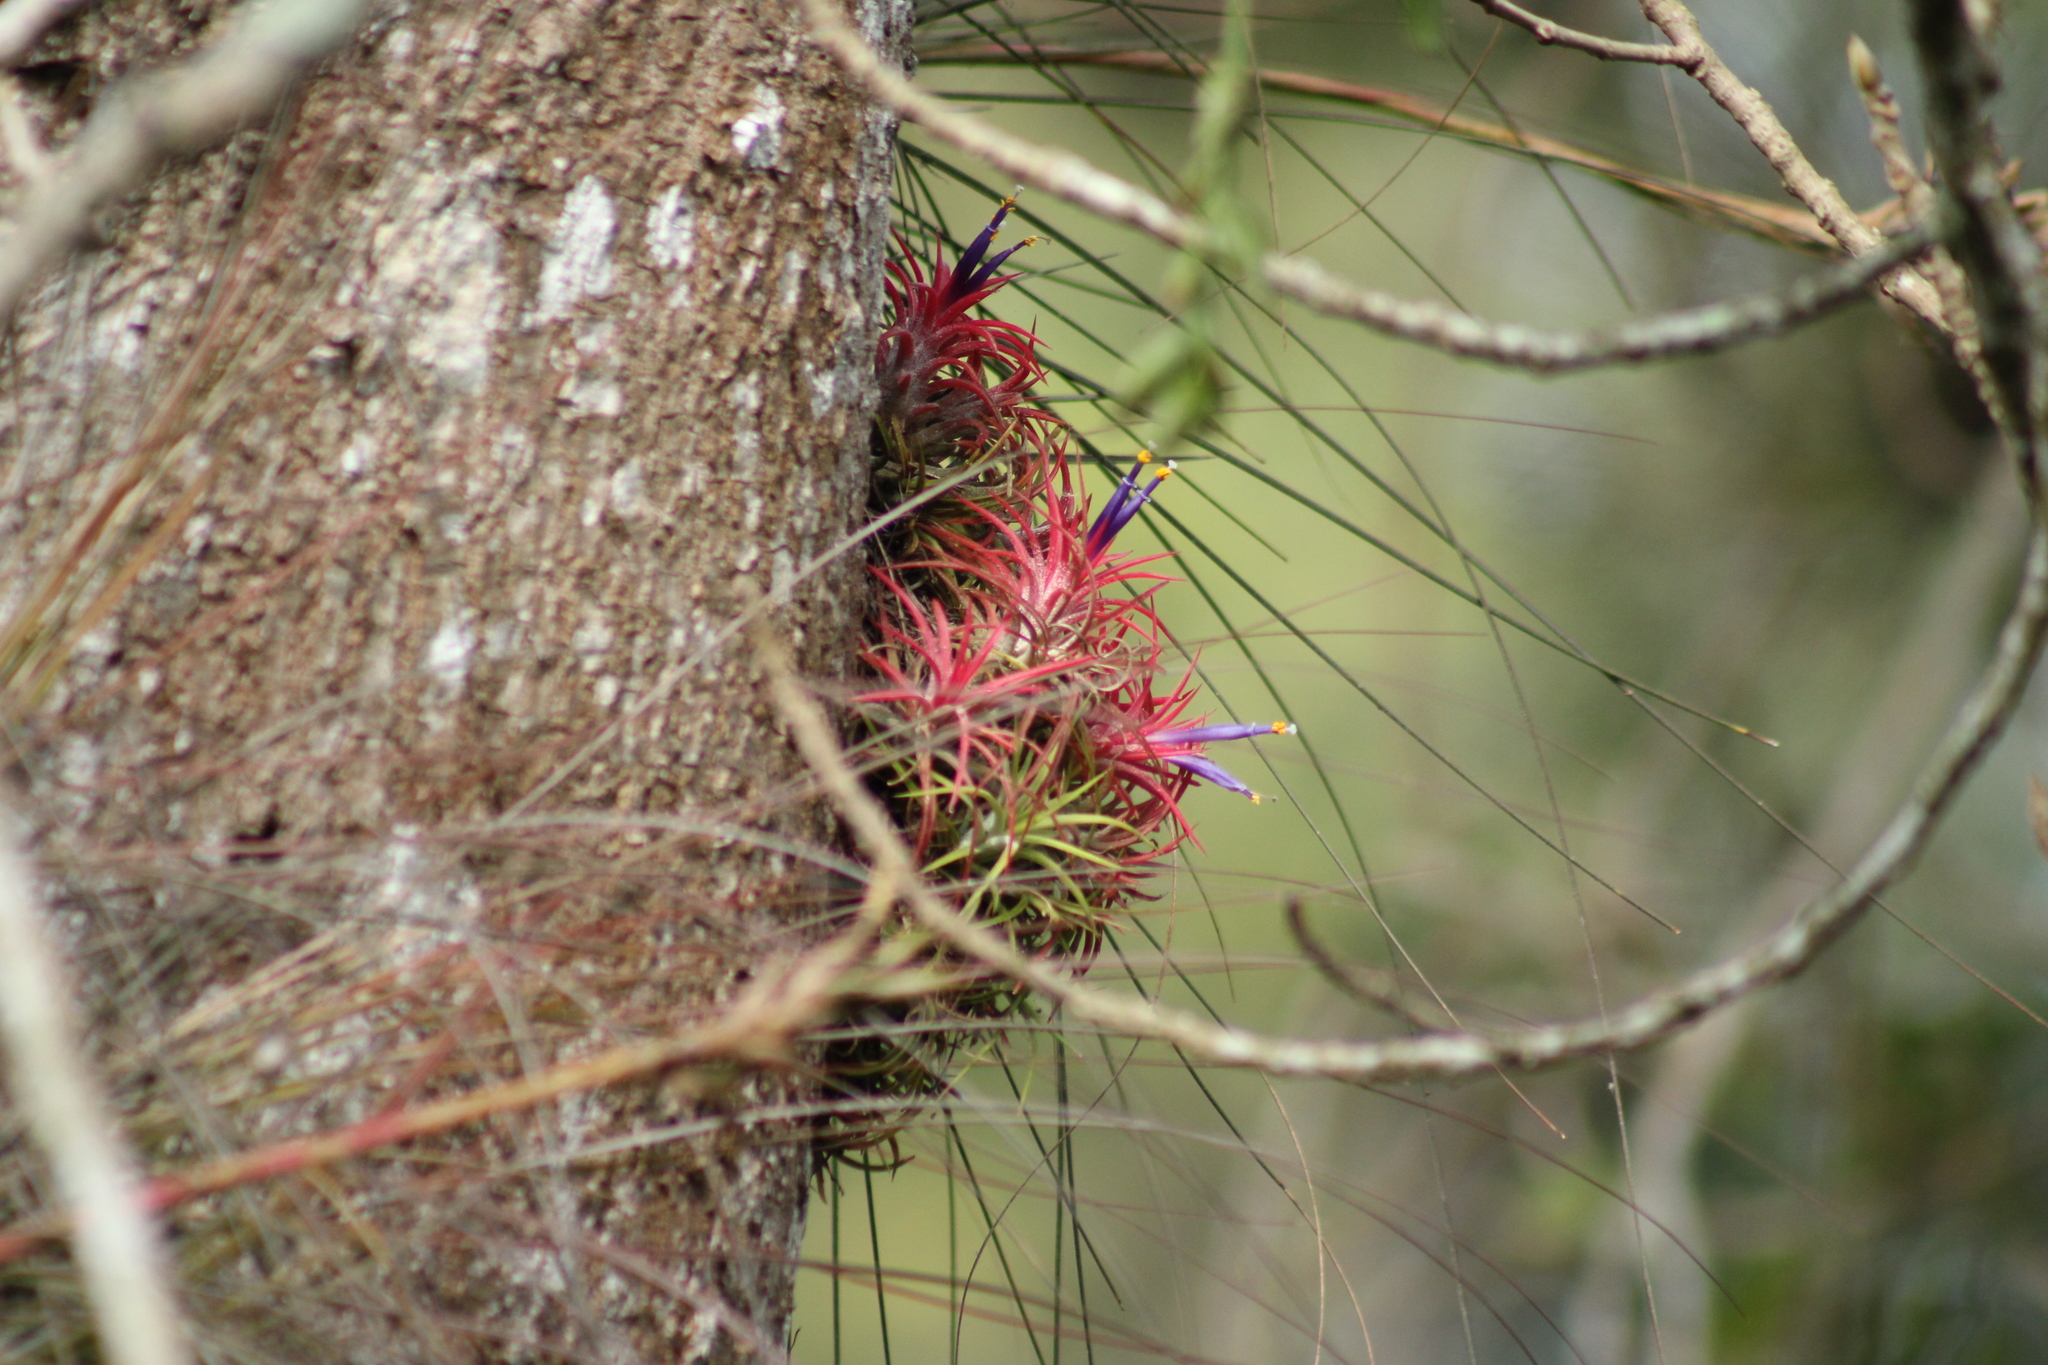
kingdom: Plantae
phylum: Tracheophyta
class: Liliopsida
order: Poales
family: Bromeliaceae
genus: Tillandsia
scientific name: Tillandsia ionantha
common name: Sky plant
